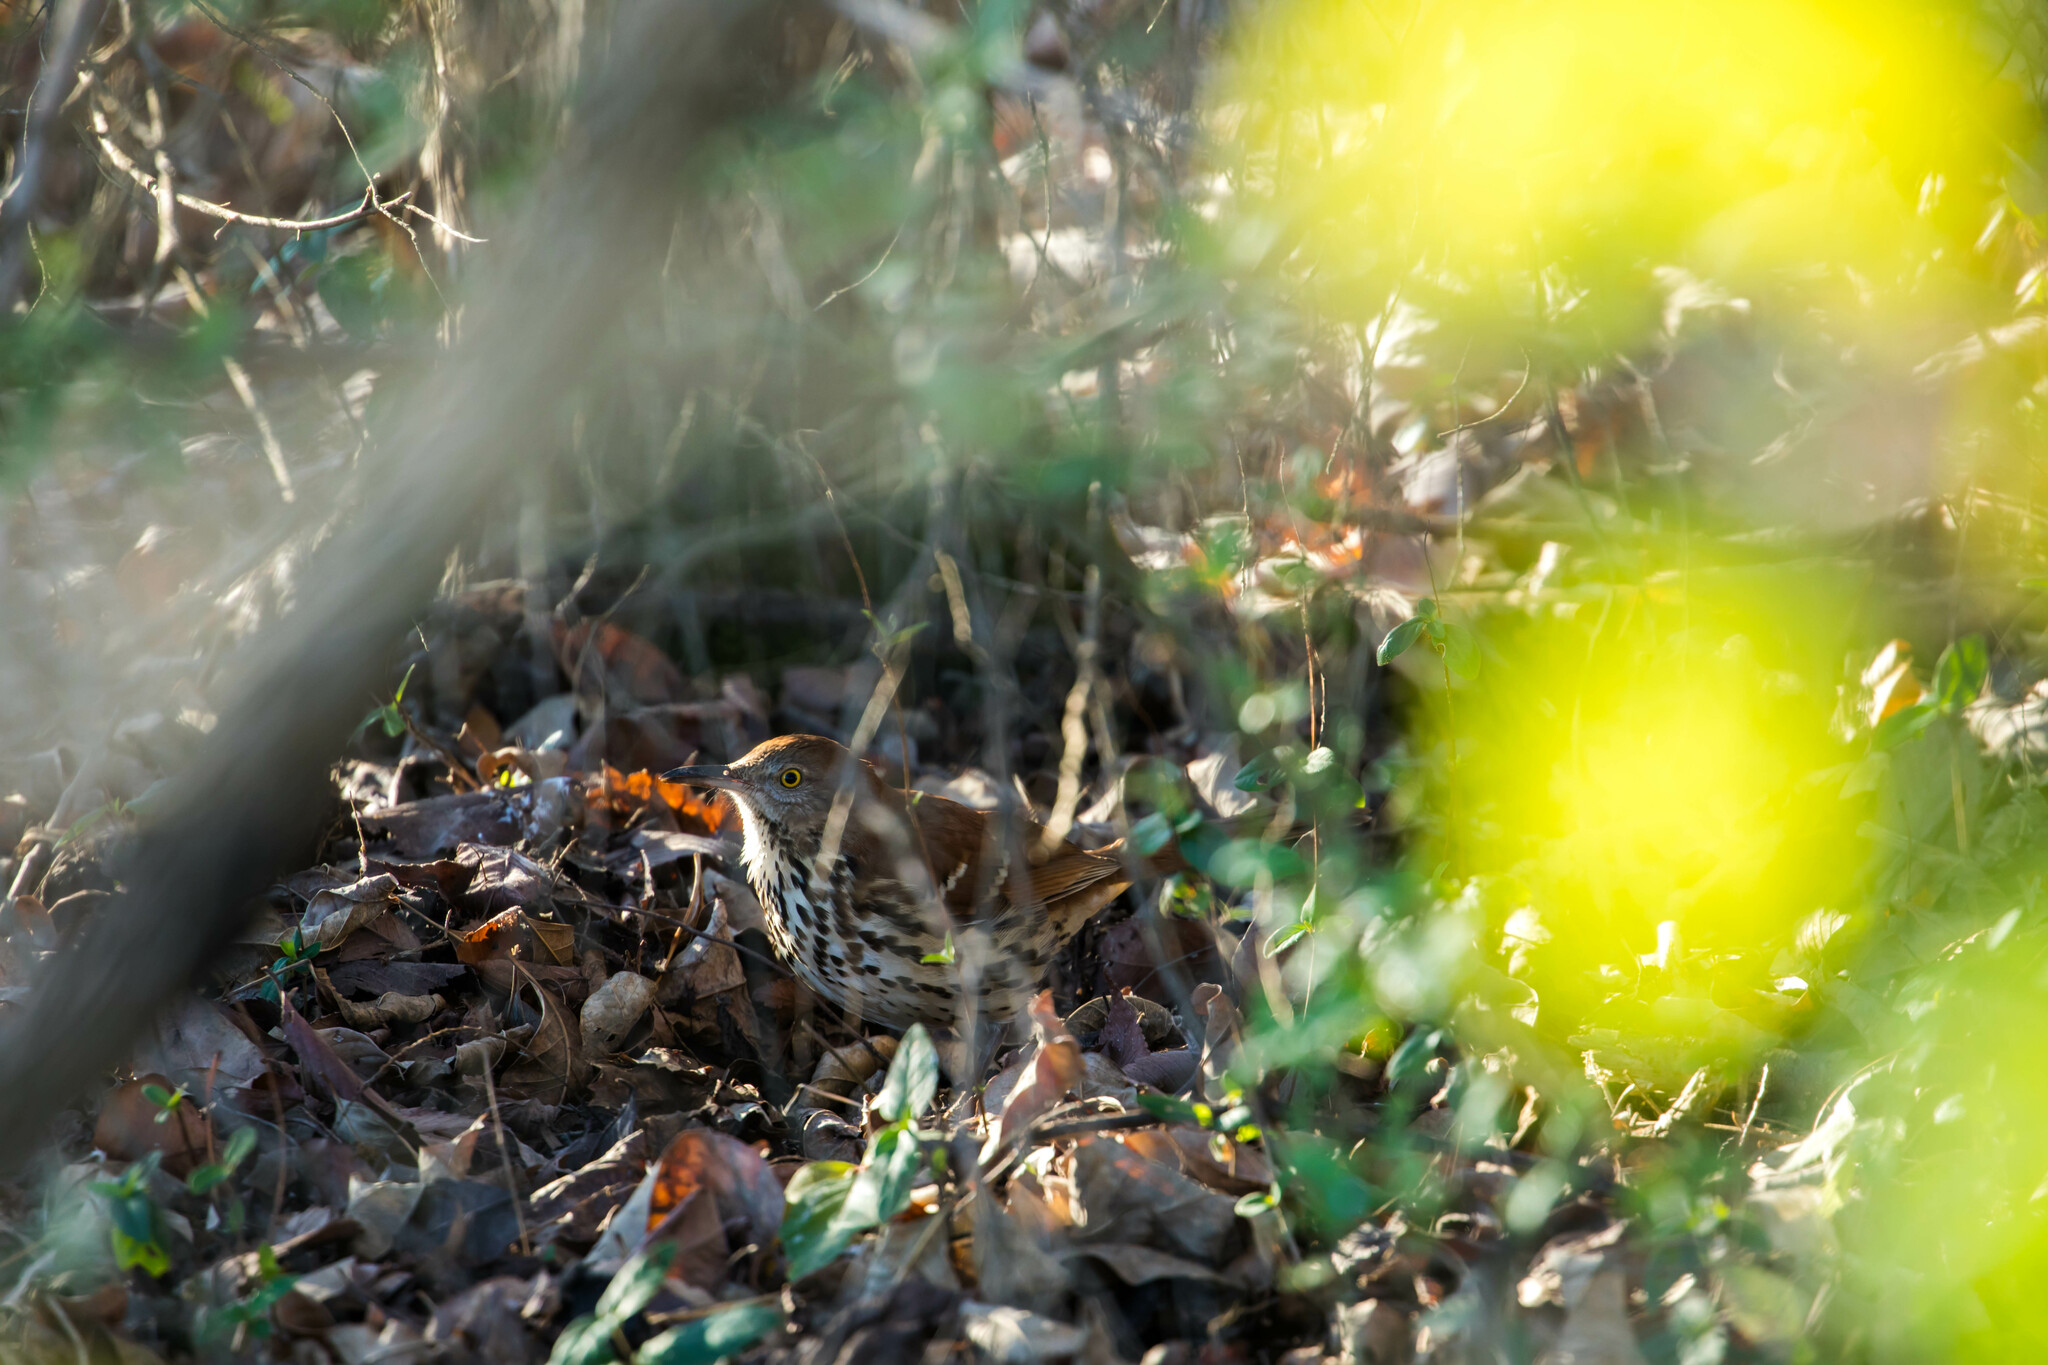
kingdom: Animalia
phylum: Chordata
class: Aves
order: Passeriformes
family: Mimidae
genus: Toxostoma
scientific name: Toxostoma rufum
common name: Brown thrasher
